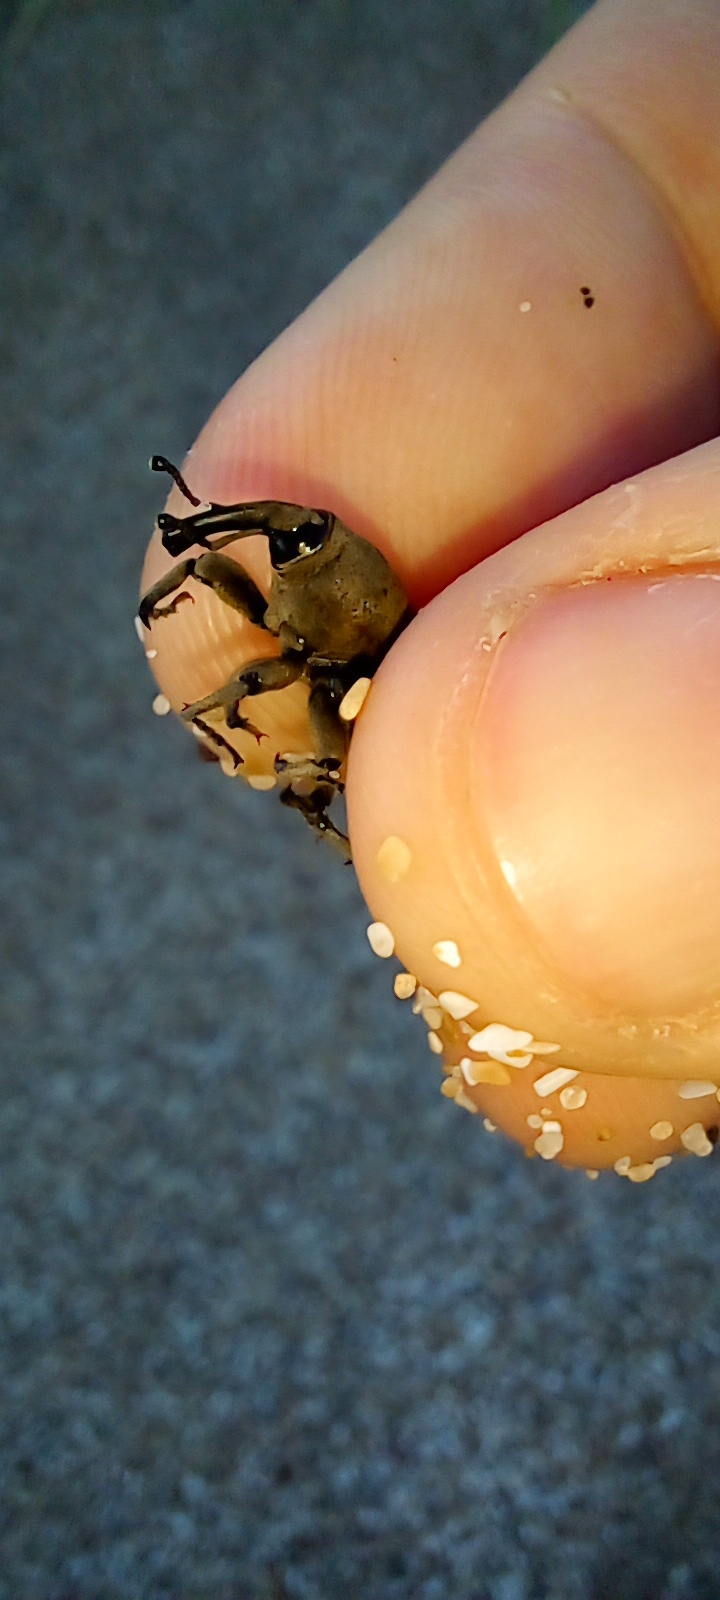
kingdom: Animalia
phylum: Arthropoda
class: Insecta
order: Coleoptera
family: Dryophthoridae
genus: Sphenophorus
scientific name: Sphenophorus rusticus
